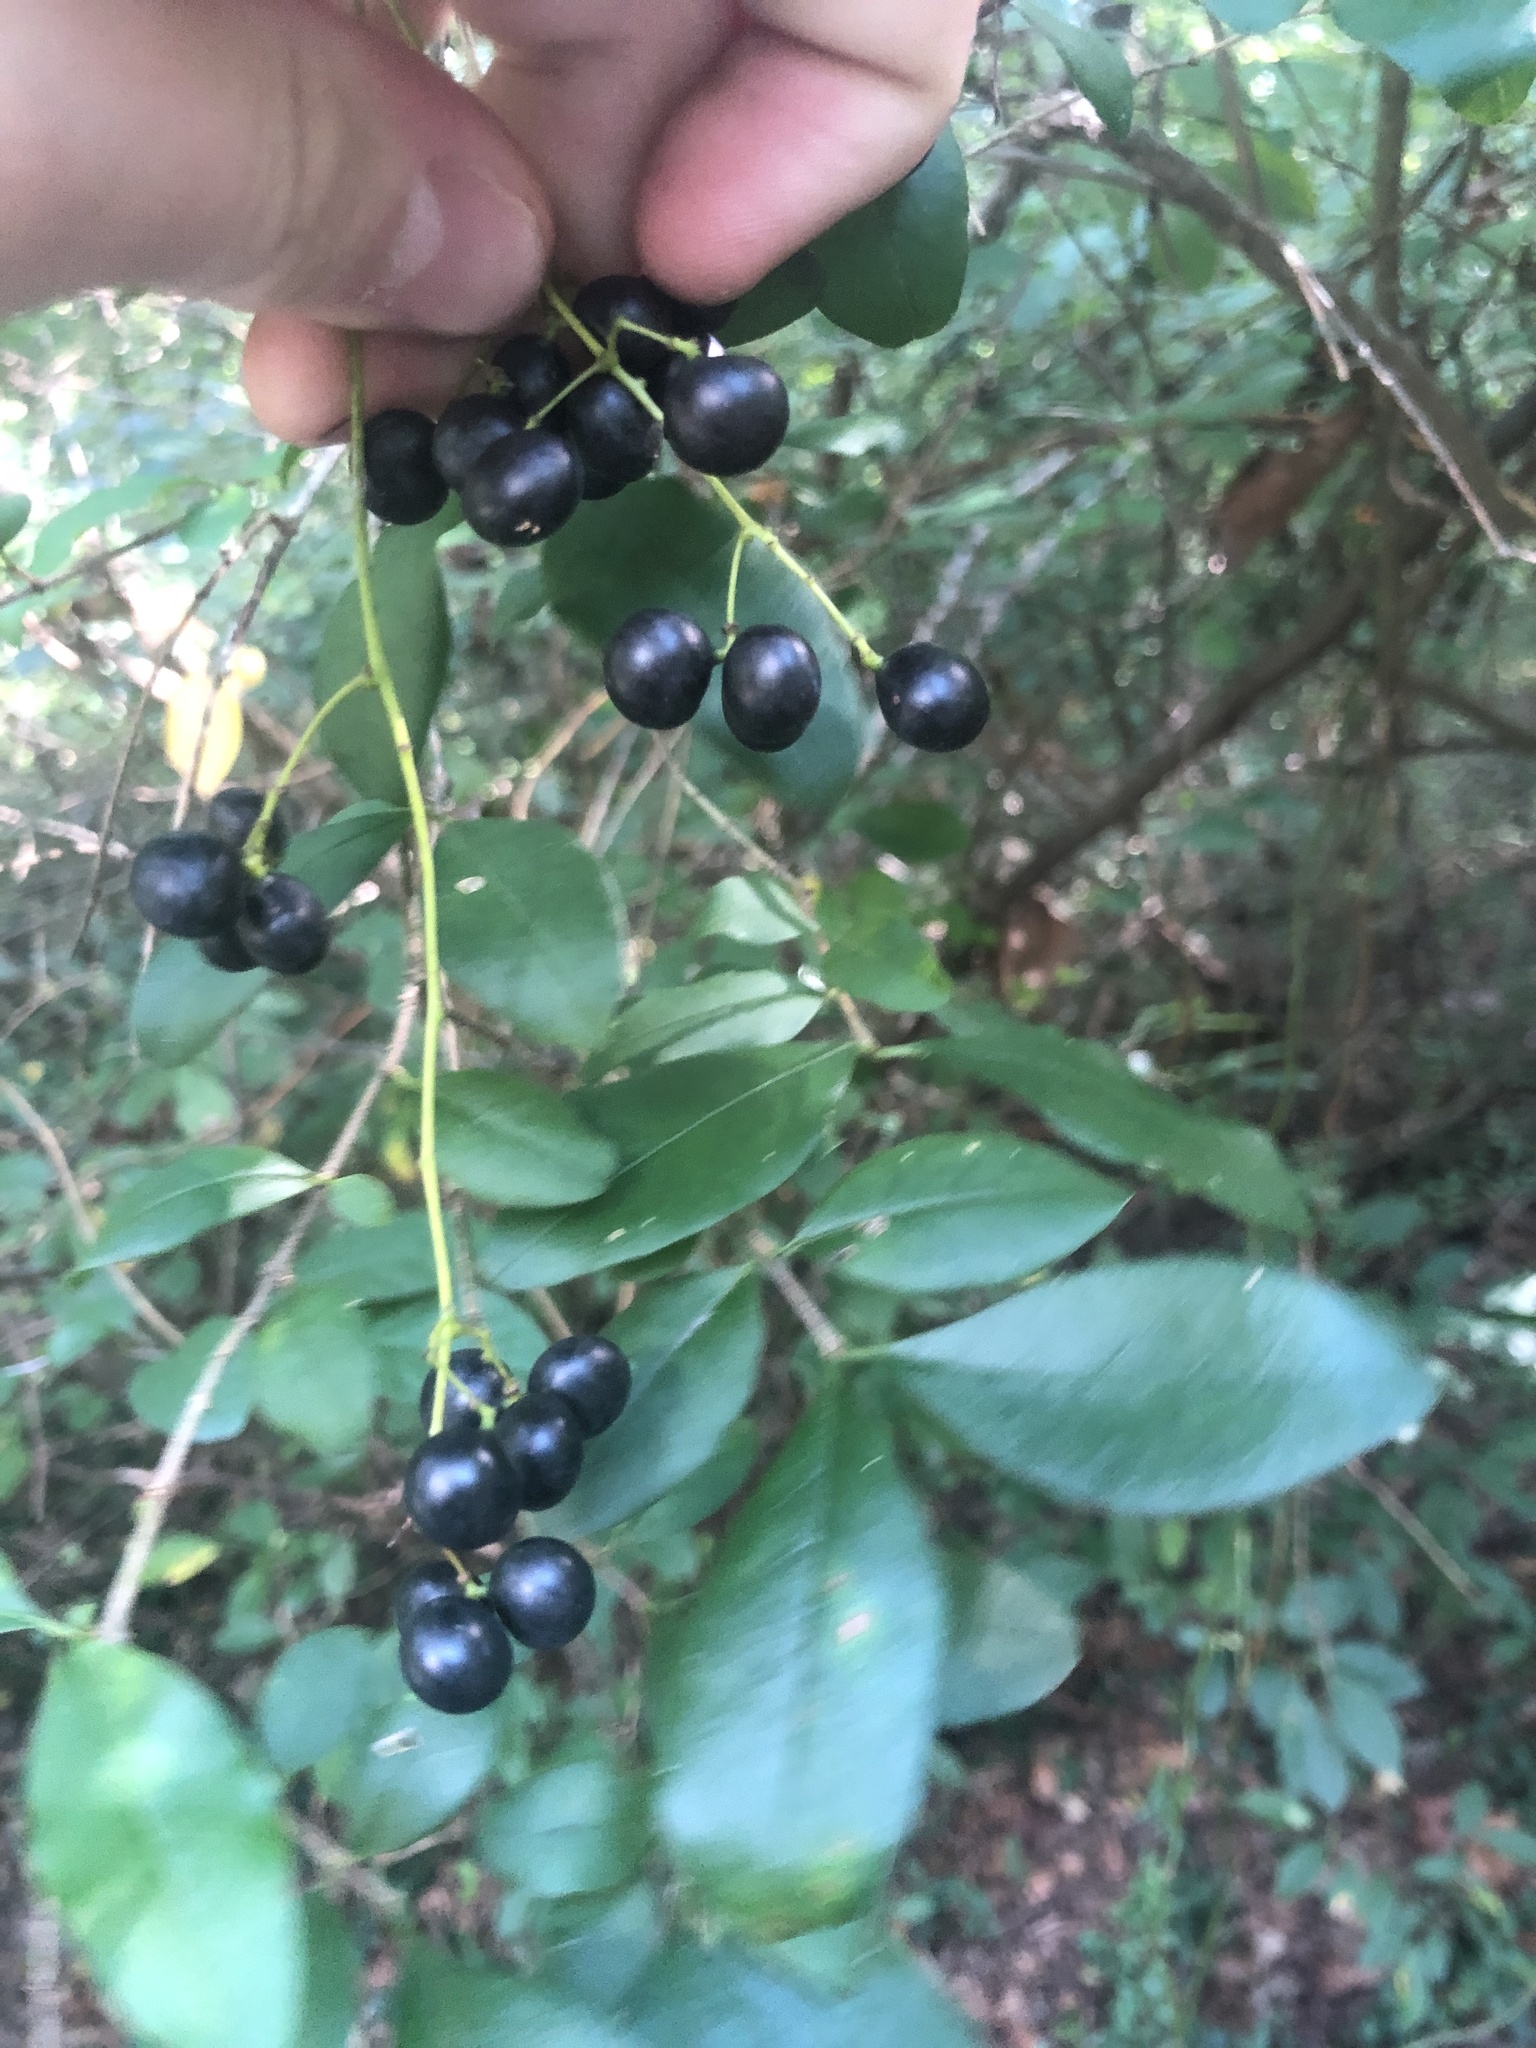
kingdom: Plantae
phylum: Tracheophyta
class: Magnoliopsida
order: Ranunculales
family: Menispermaceae
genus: Menispermum
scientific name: Menispermum canadense
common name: Moonseed
